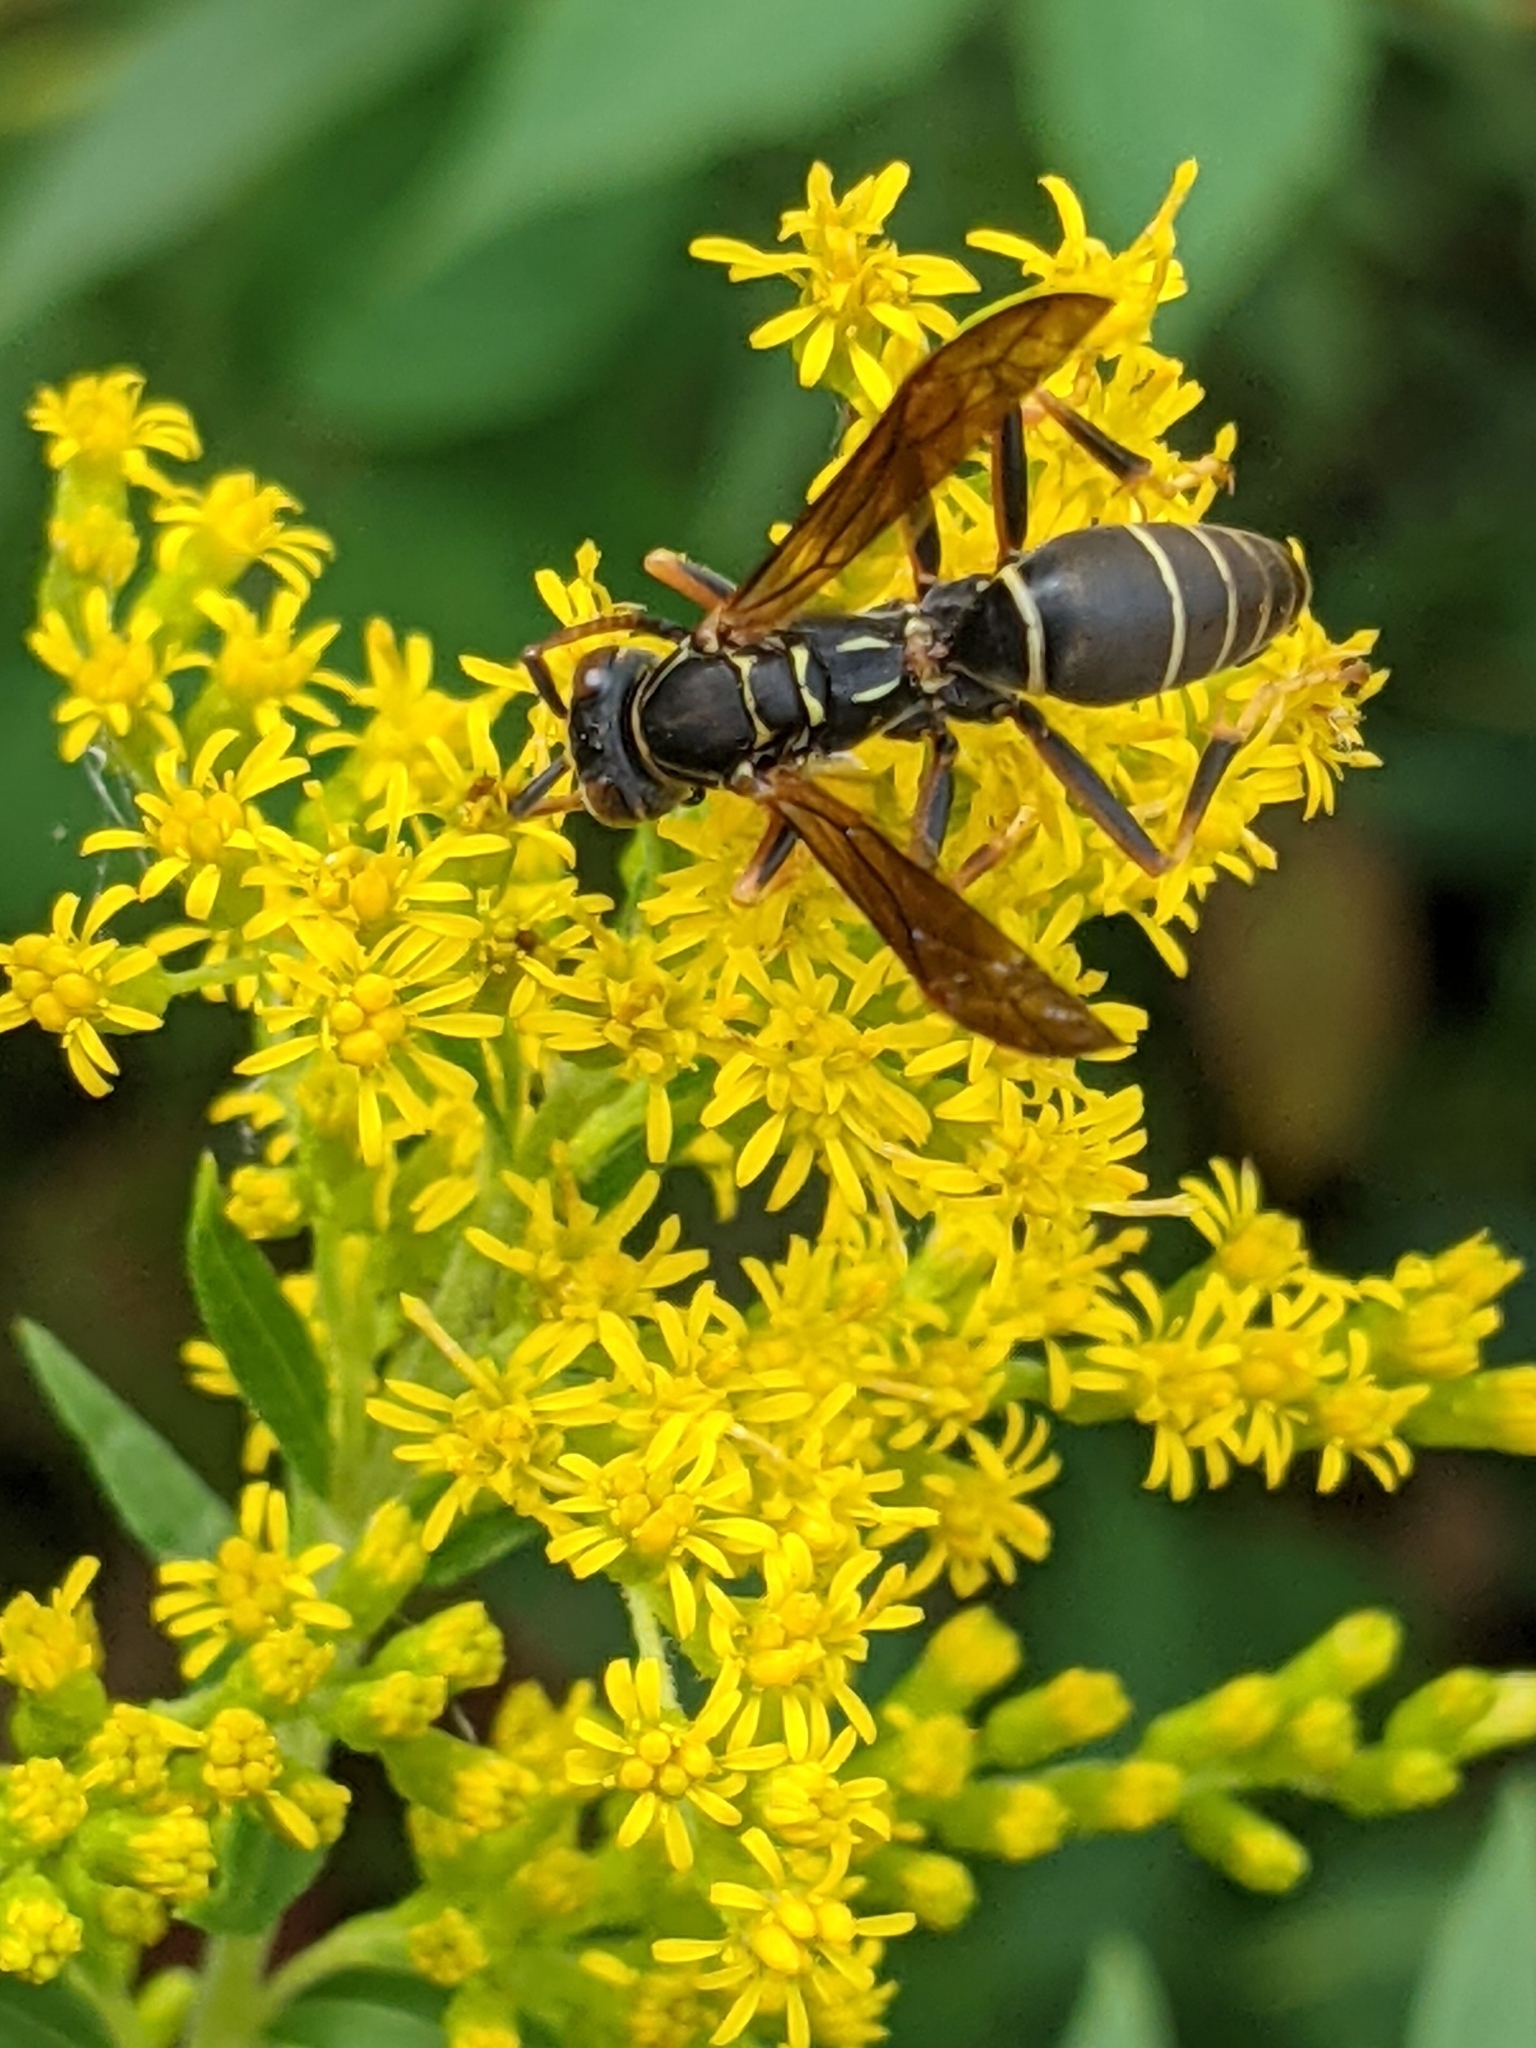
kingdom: Animalia
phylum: Arthropoda
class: Insecta
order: Hymenoptera
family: Eumenidae
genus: Polistes
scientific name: Polistes fuscatus
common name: Dark paper wasp
